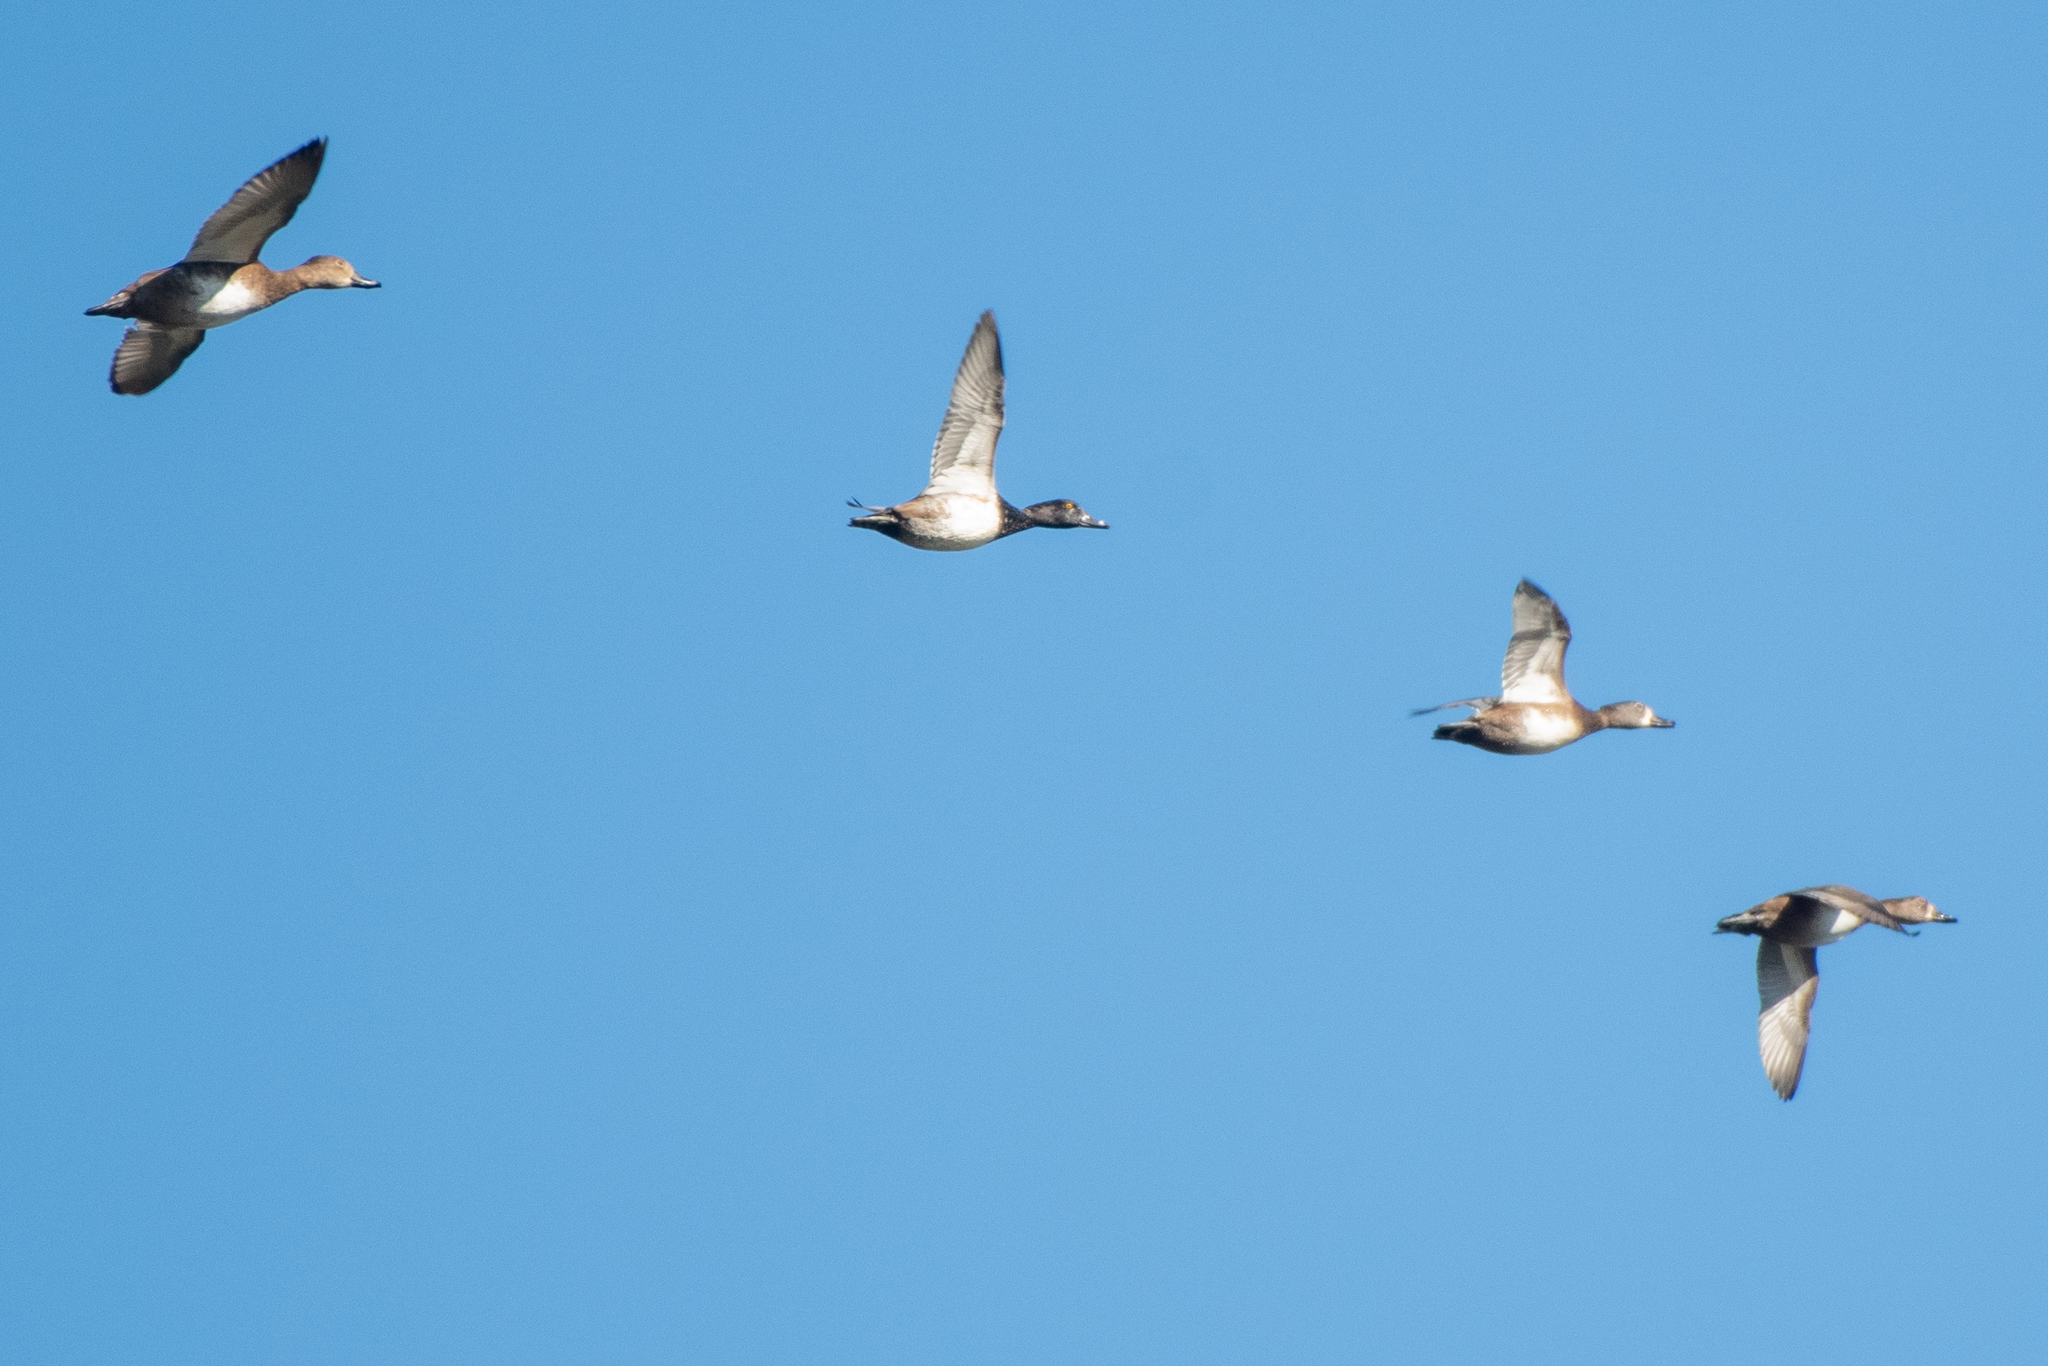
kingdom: Animalia
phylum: Chordata
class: Aves
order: Anseriformes
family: Anatidae
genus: Aythya
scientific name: Aythya collaris
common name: Ring-necked duck
